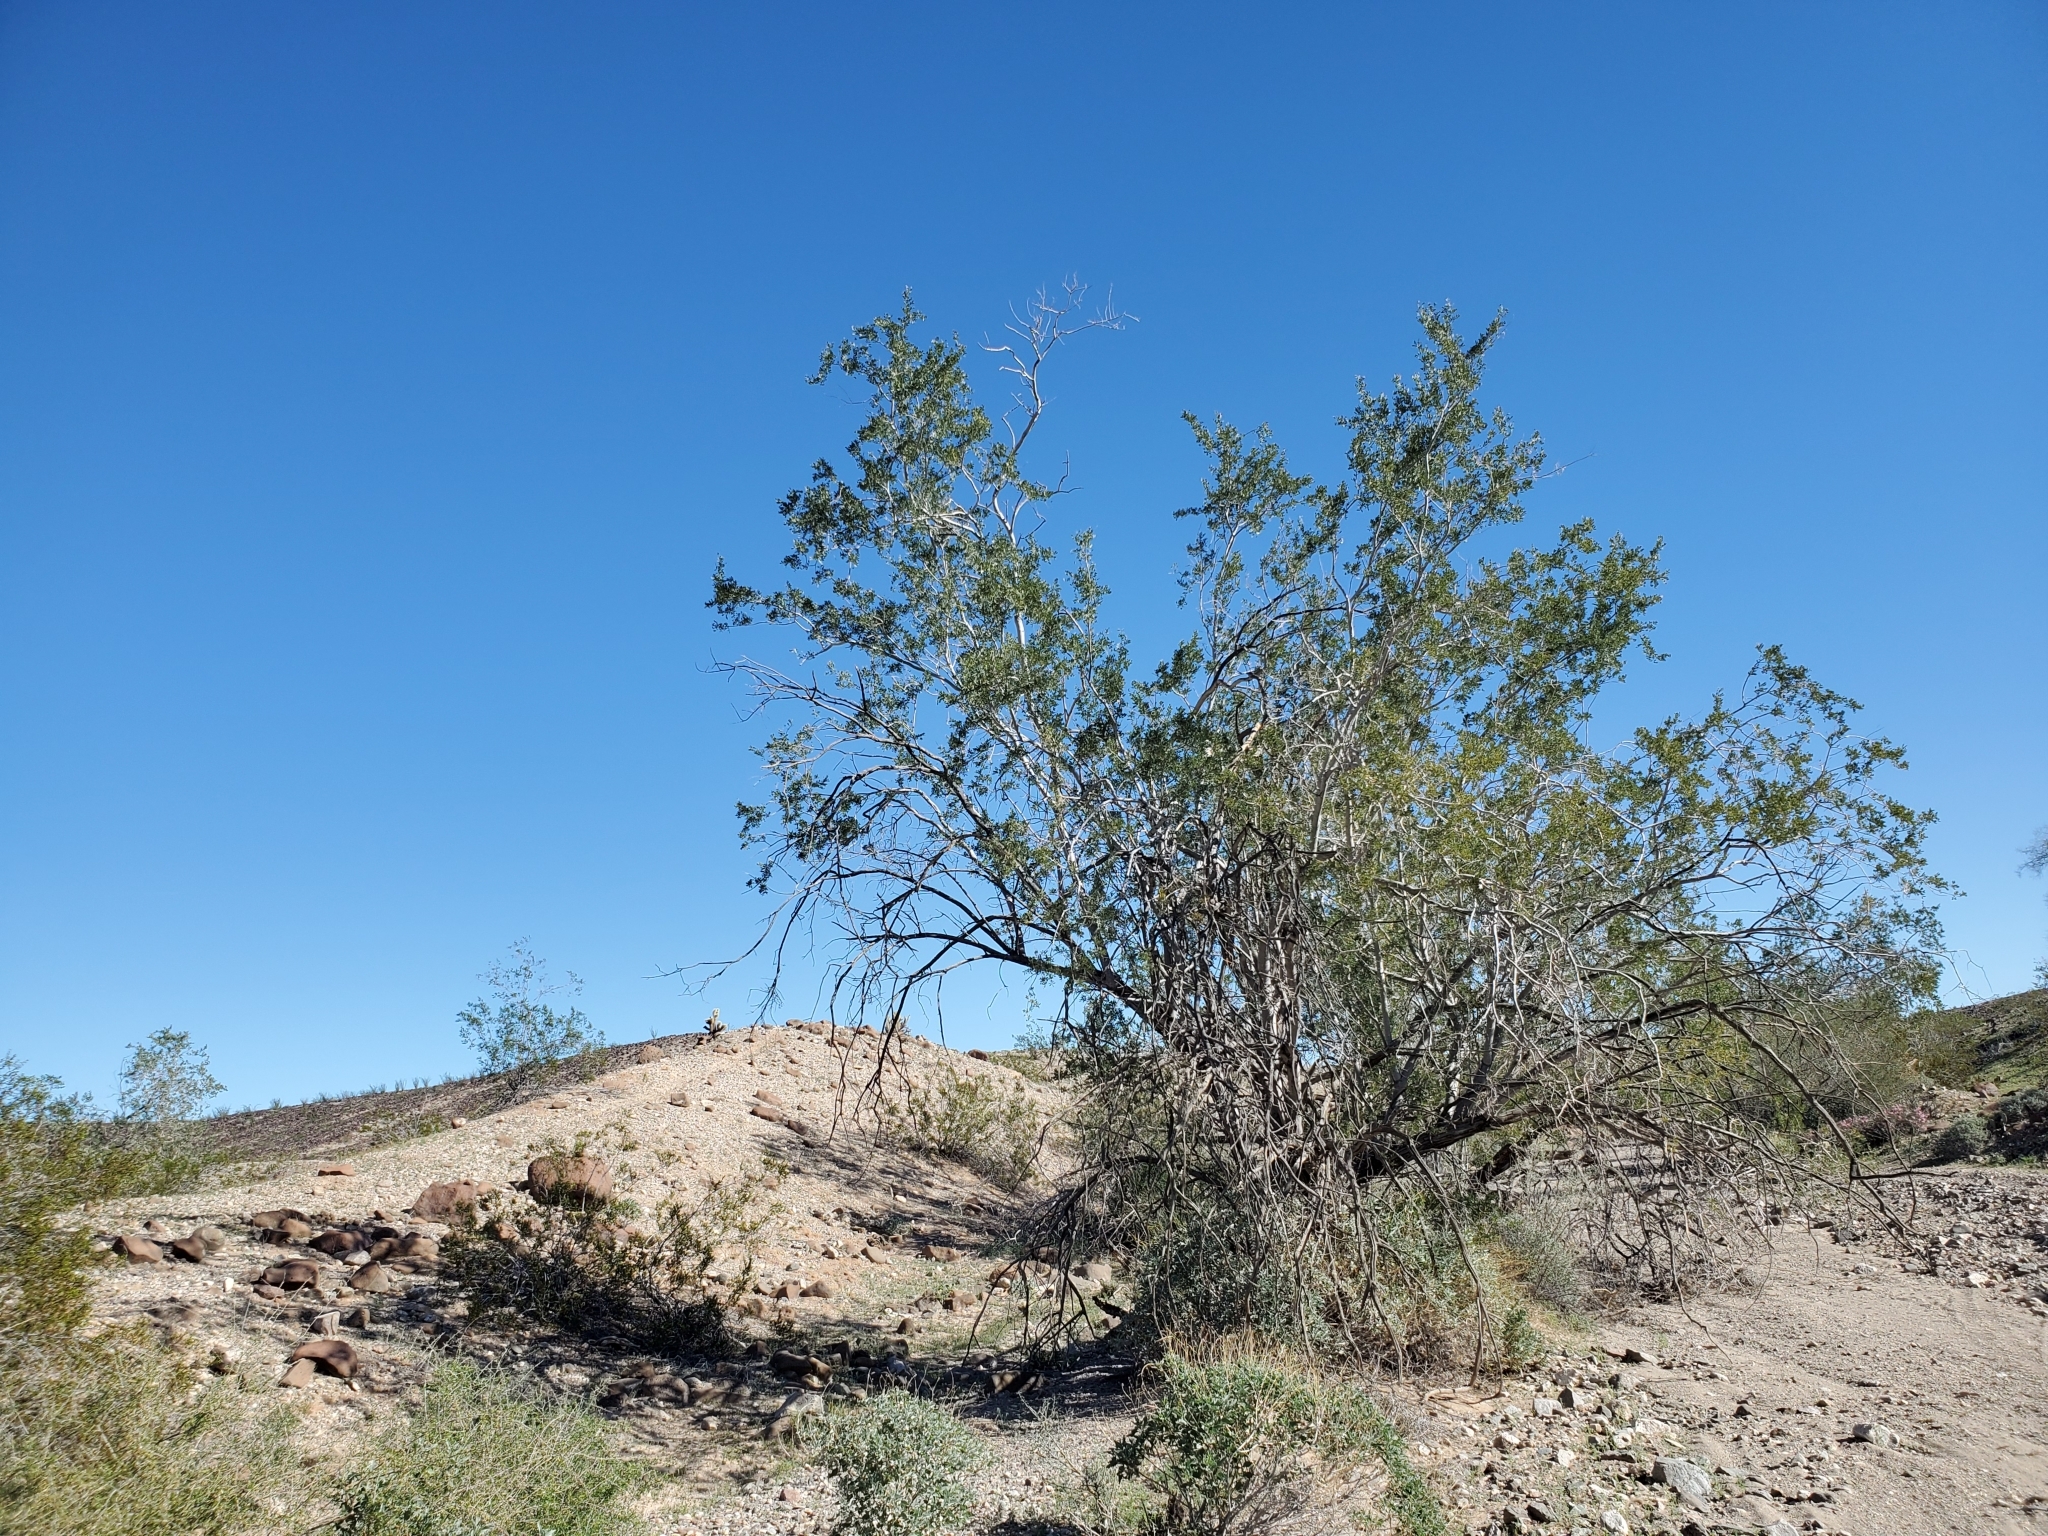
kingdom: Plantae
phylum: Tracheophyta
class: Magnoliopsida
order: Fabales
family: Fabaceae
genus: Olneya
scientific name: Olneya tesota
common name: Desert ironwood
